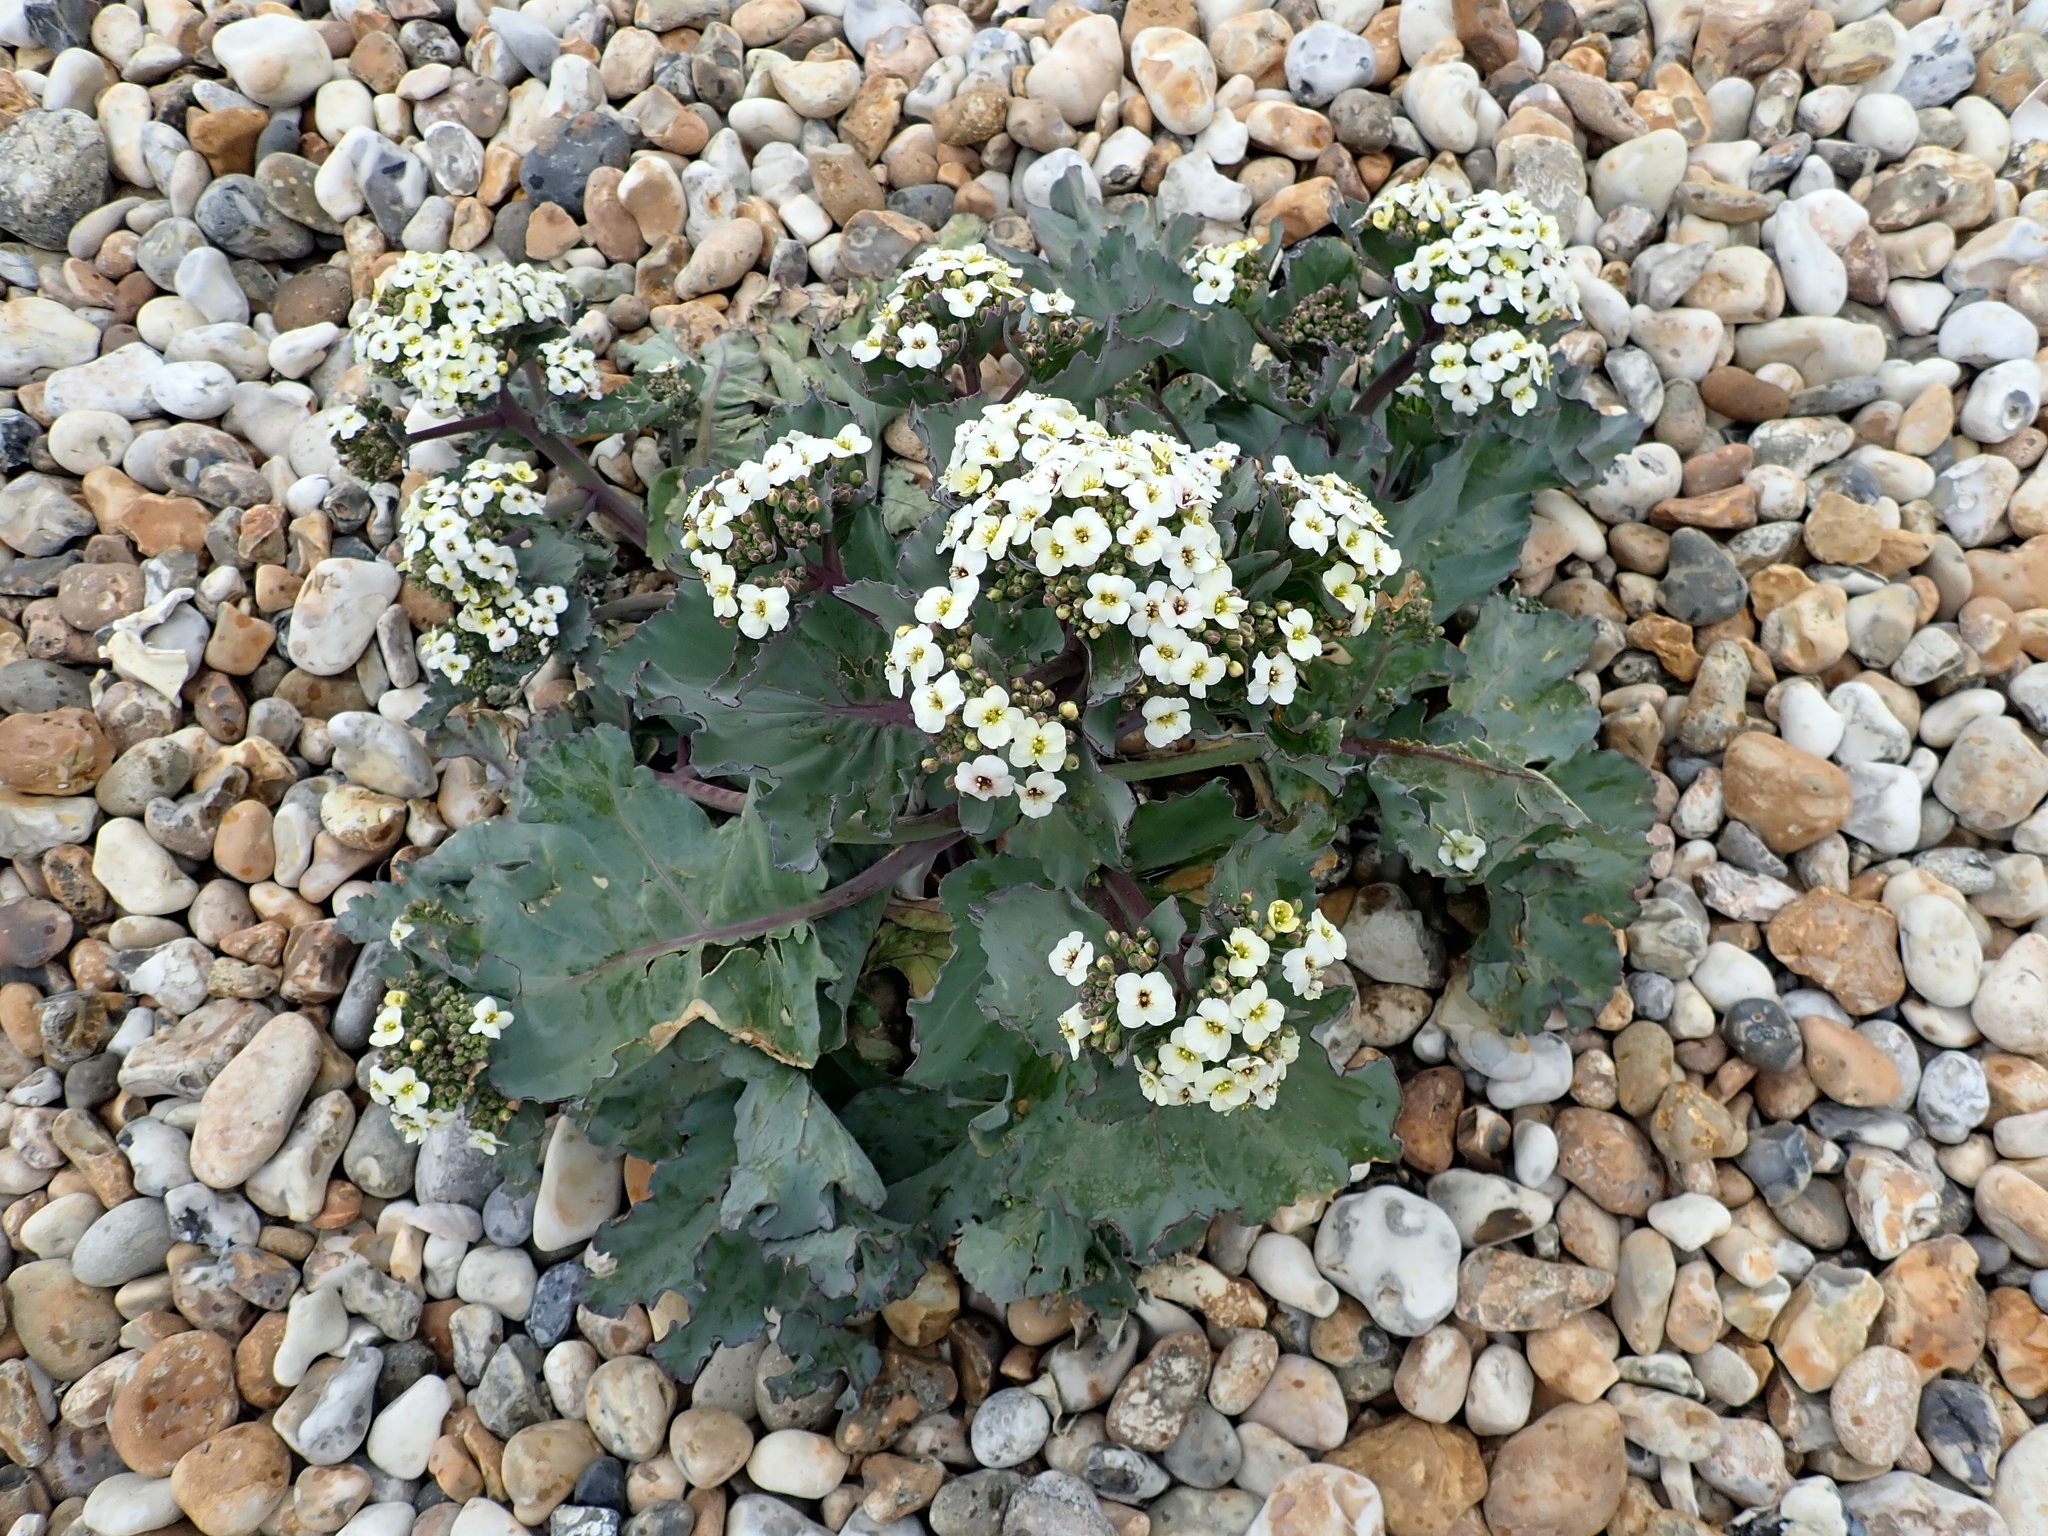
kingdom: Plantae
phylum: Tracheophyta
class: Magnoliopsida
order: Brassicales
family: Brassicaceae
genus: Crambe
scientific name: Crambe maritima
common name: Sea-kale
